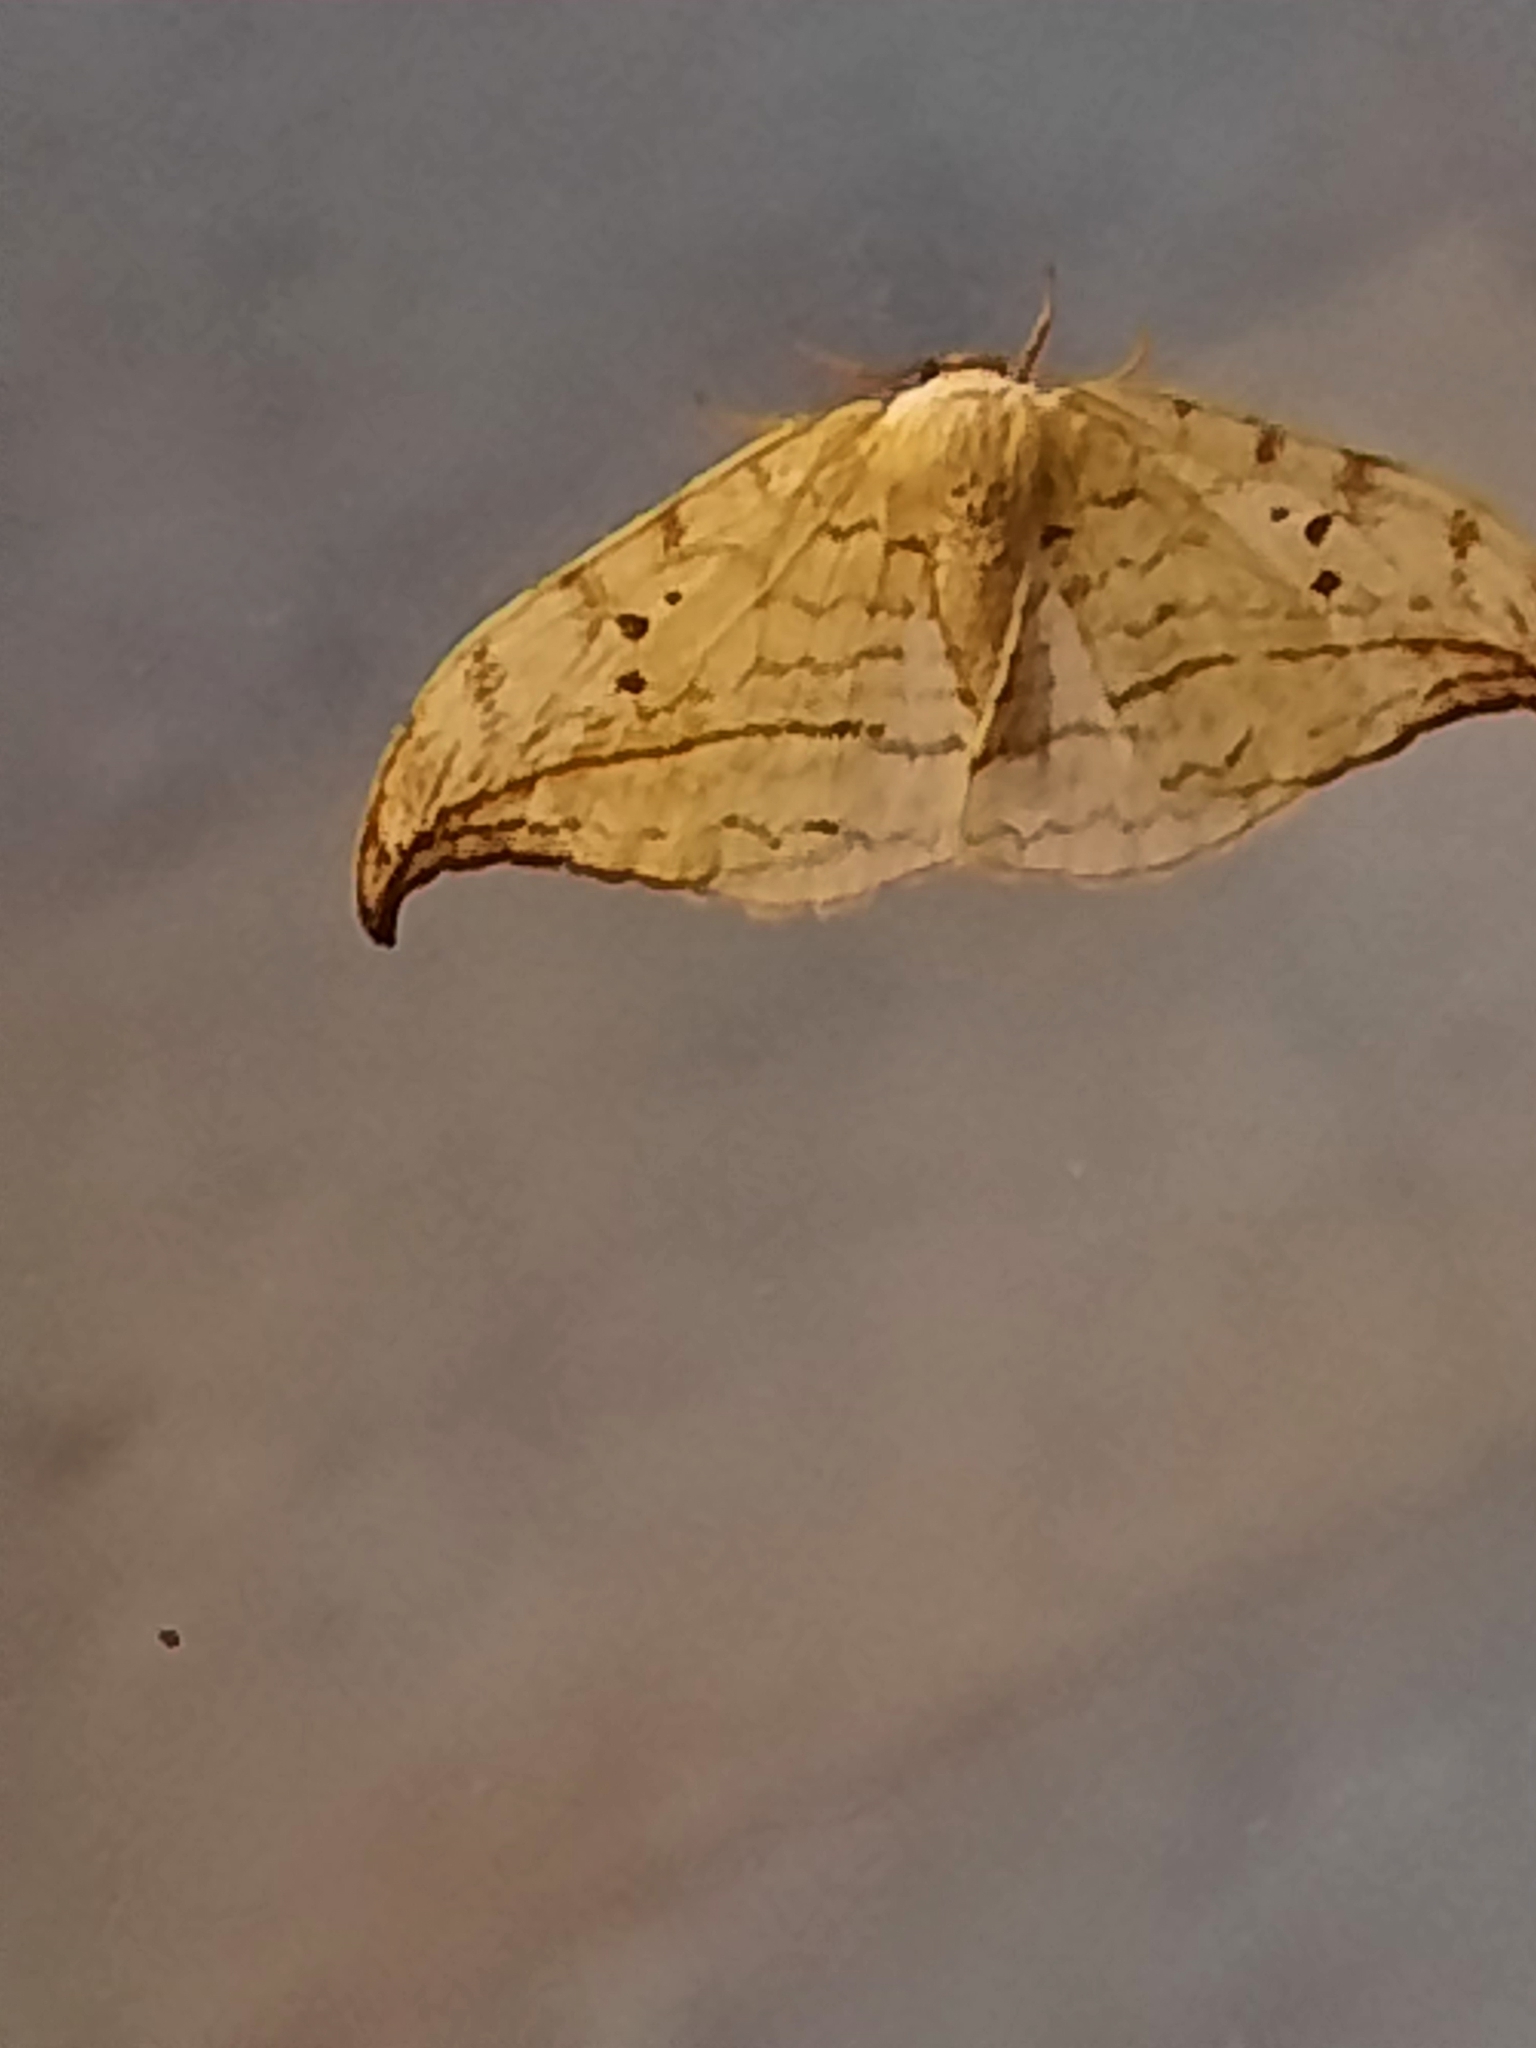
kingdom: Animalia
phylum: Arthropoda
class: Insecta
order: Lepidoptera
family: Drepanidae
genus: Drepana
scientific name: Drepana arcuata
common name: Arched hooktip moth
